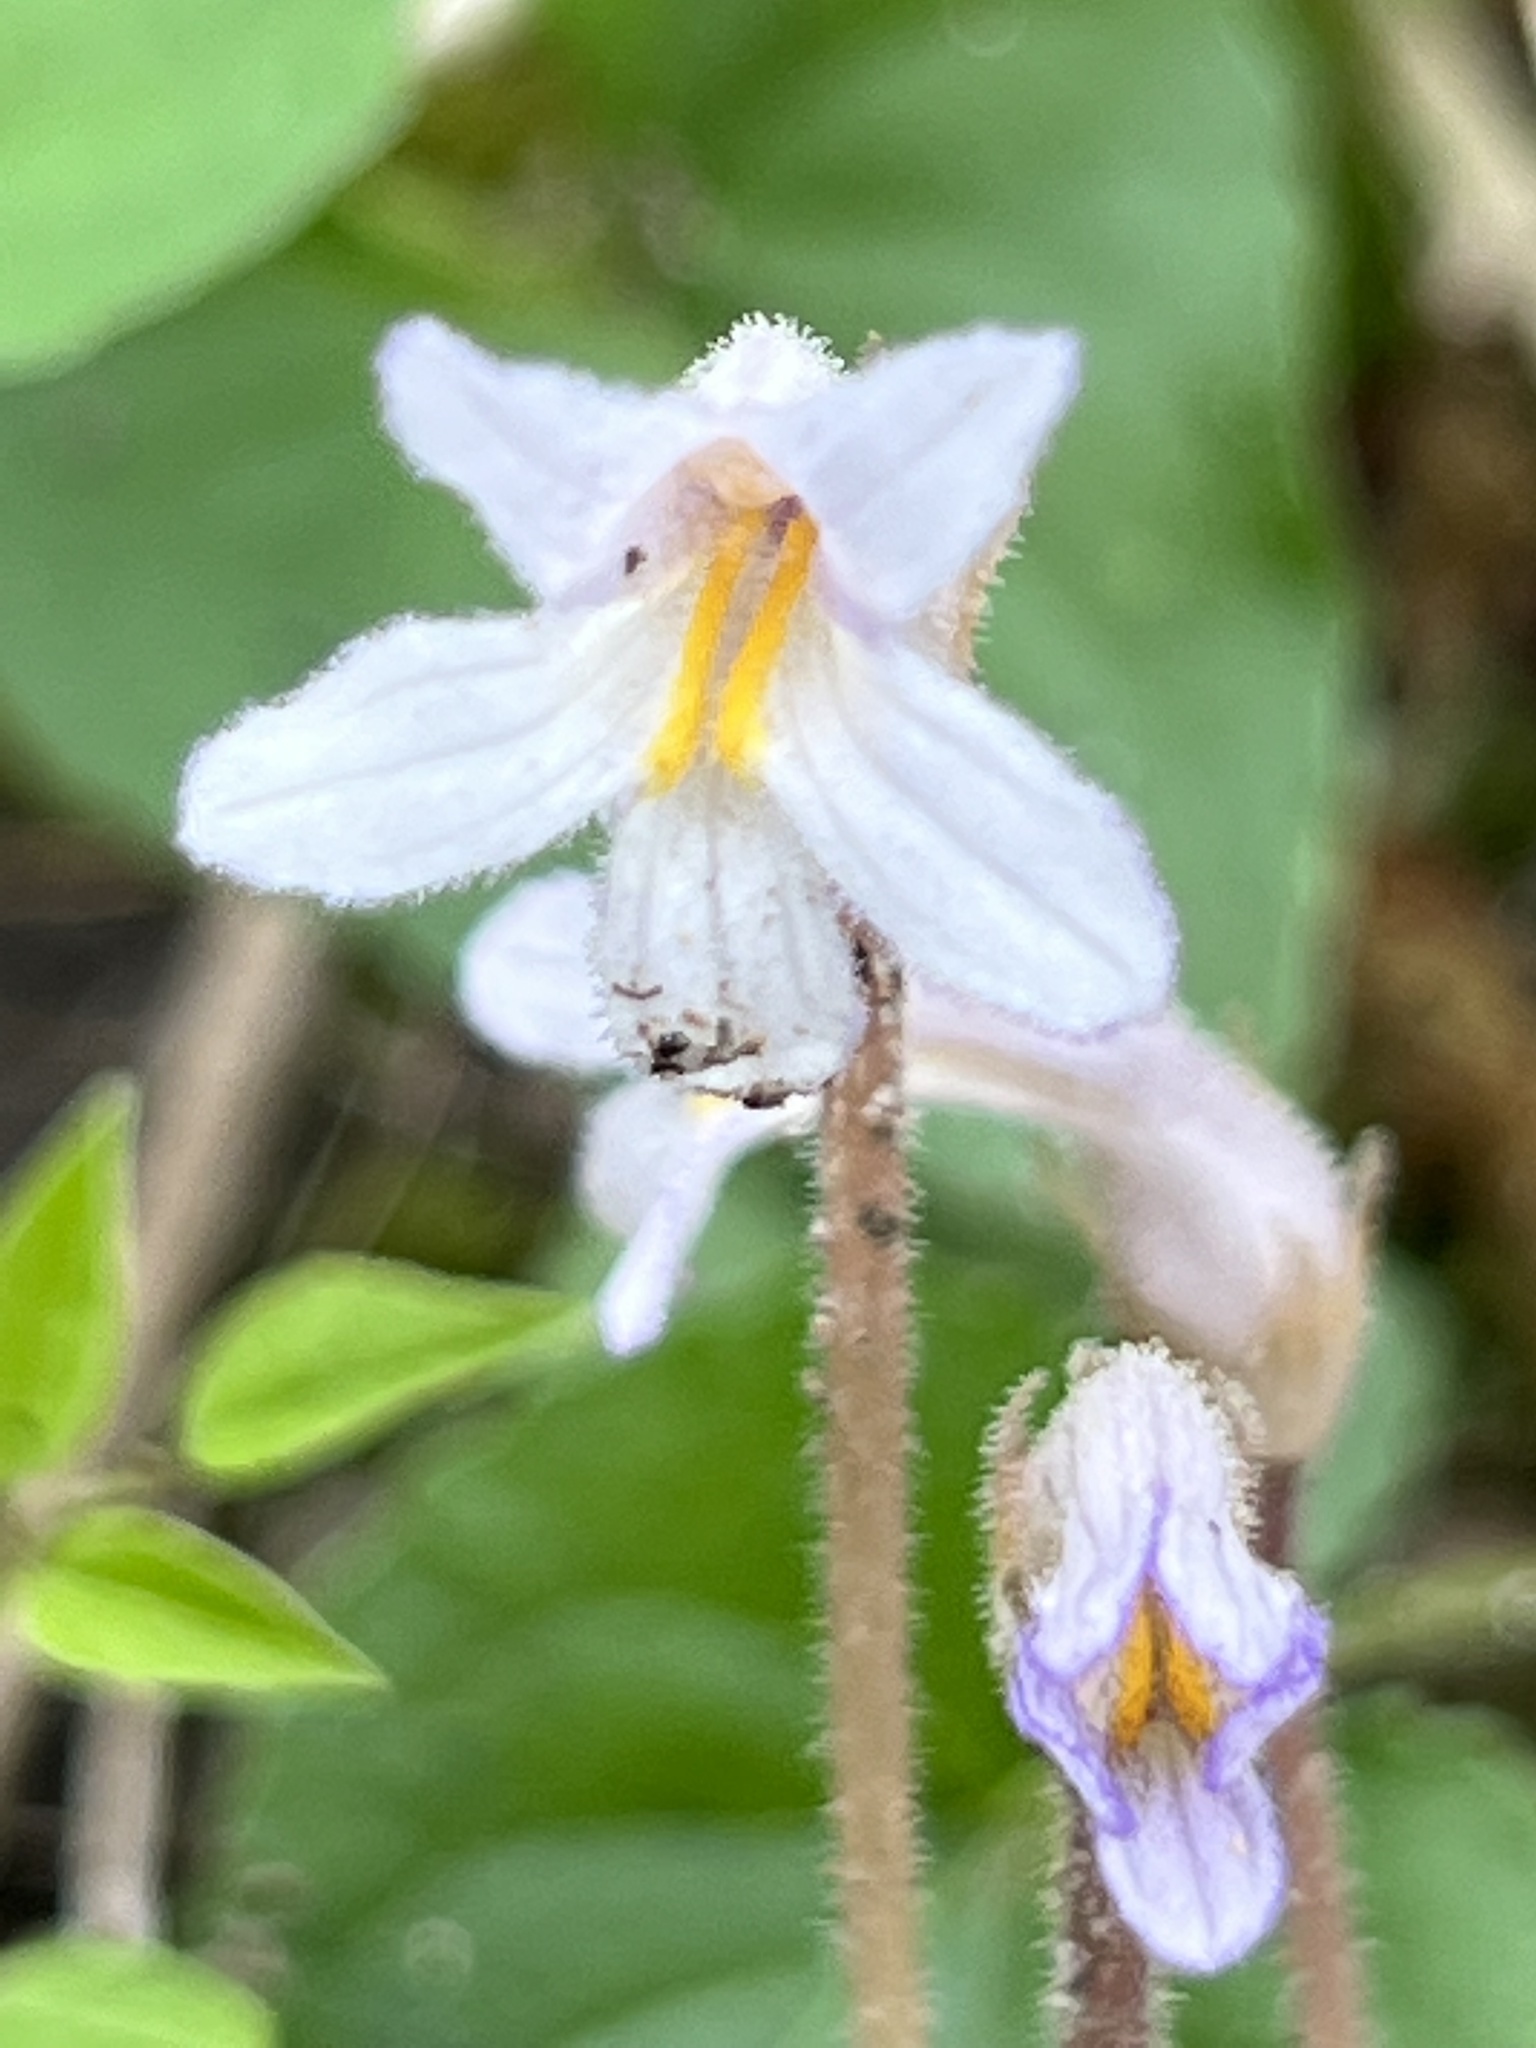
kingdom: Plantae
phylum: Tracheophyta
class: Magnoliopsida
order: Lamiales
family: Orobanchaceae
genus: Aphyllon
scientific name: Aphyllon uniflorum
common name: One-flowered broomrape
